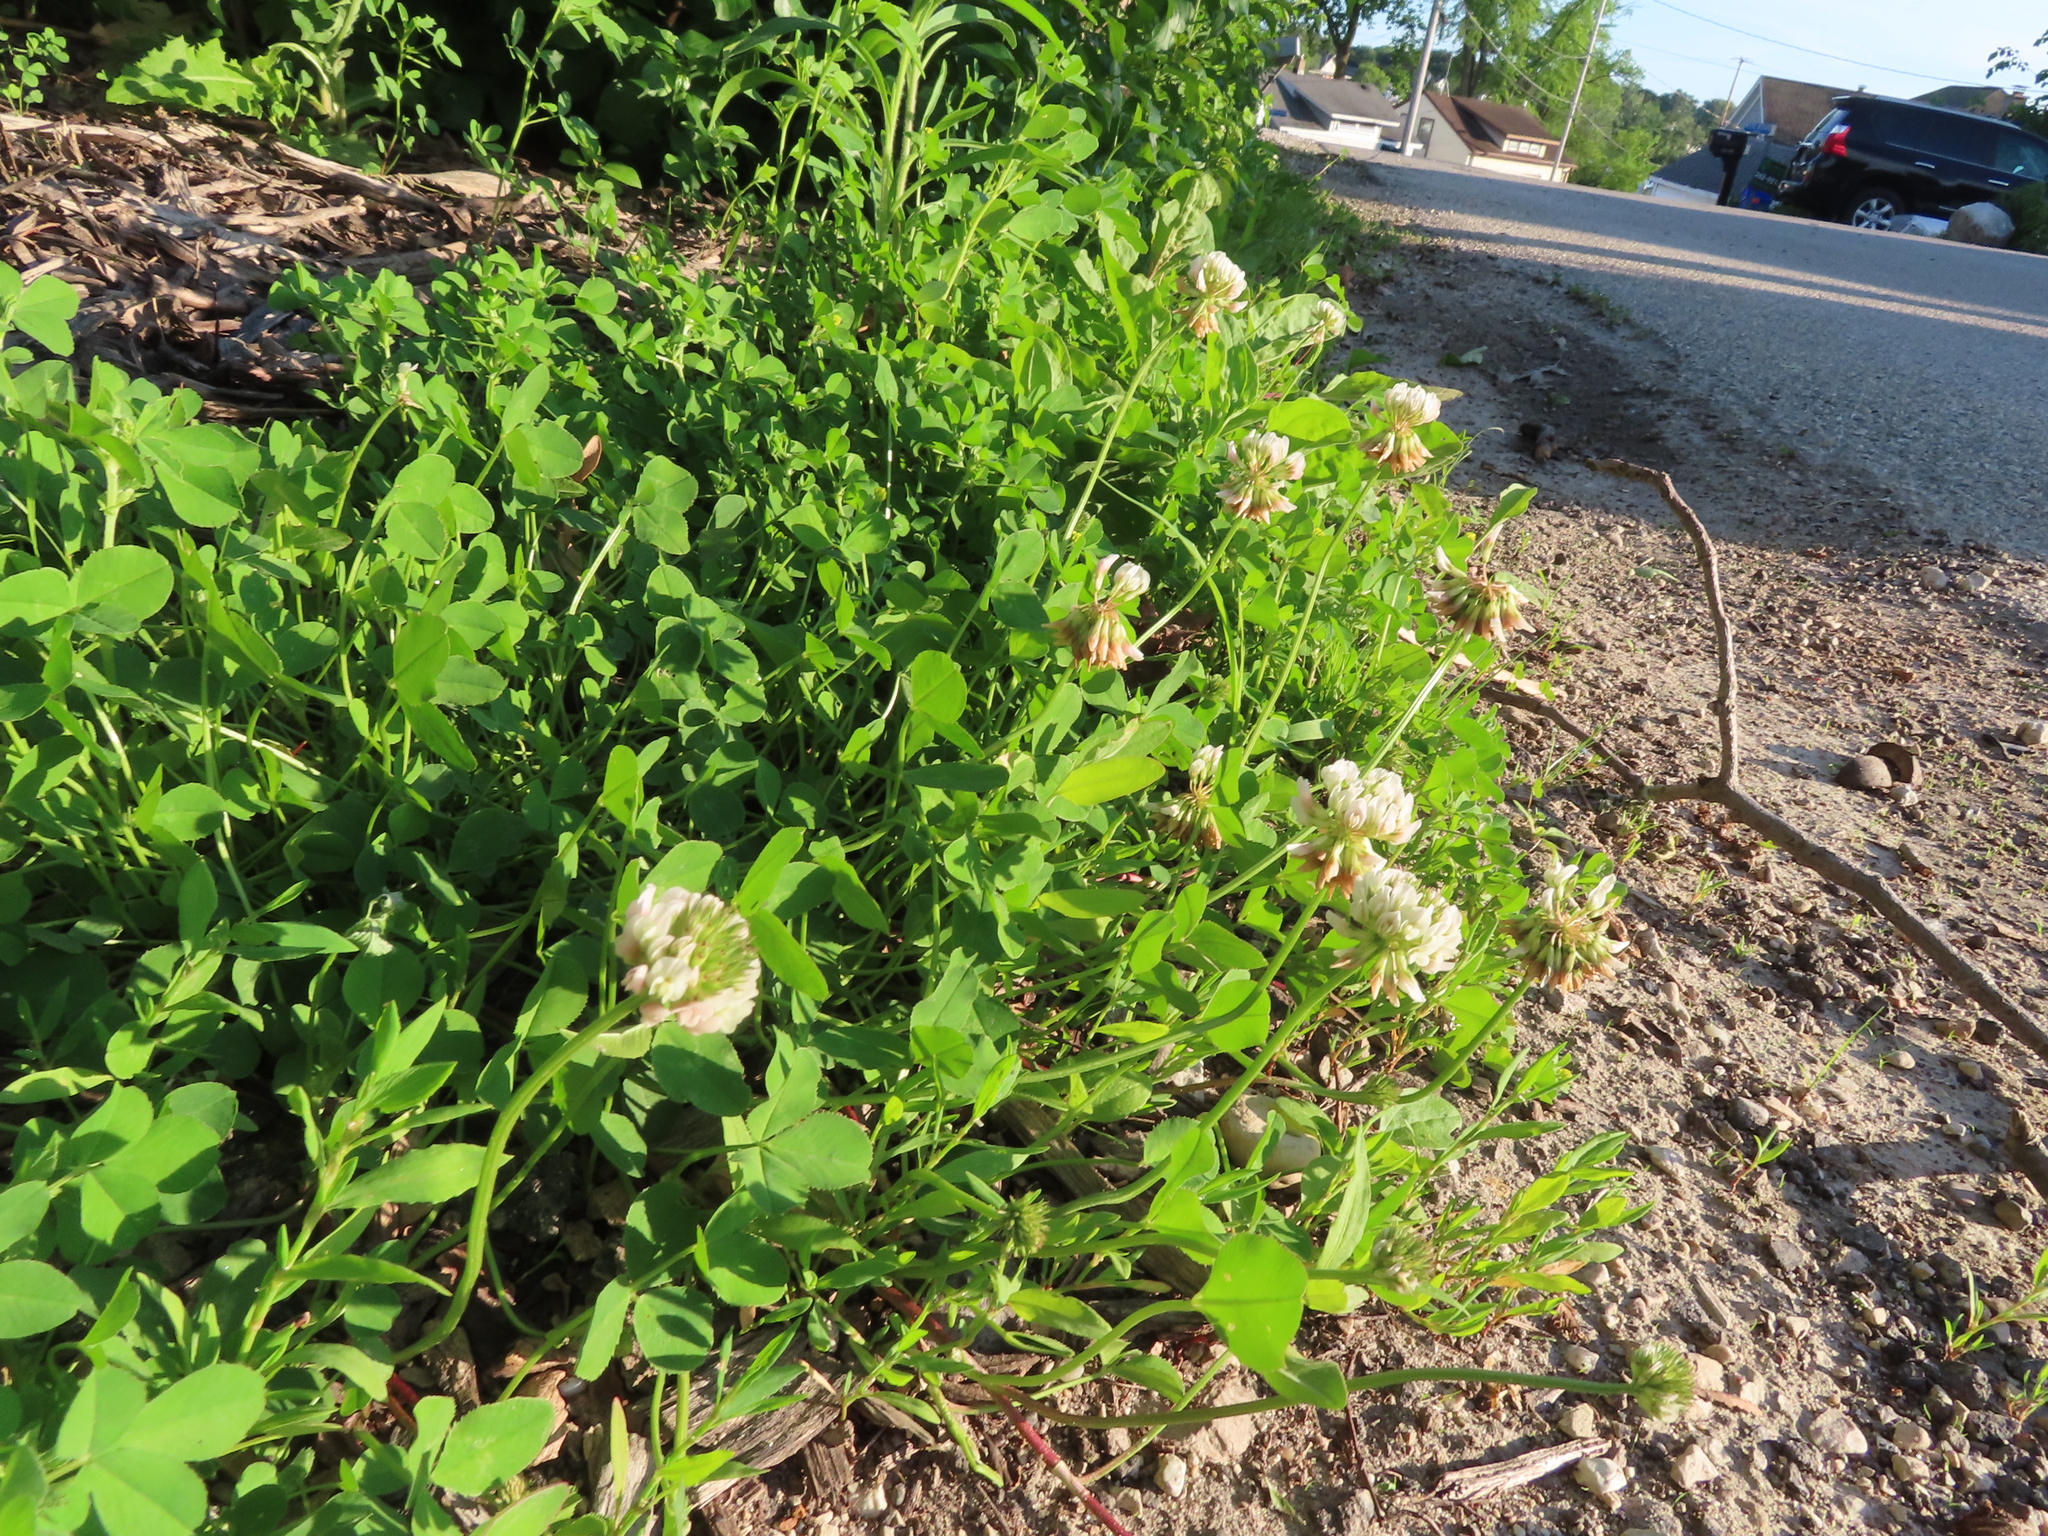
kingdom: Plantae
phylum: Tracheophyta
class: Magnoliopsida
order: Fabales
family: Fabaceae
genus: Trifolium
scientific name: Trifolium repens
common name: White clover
